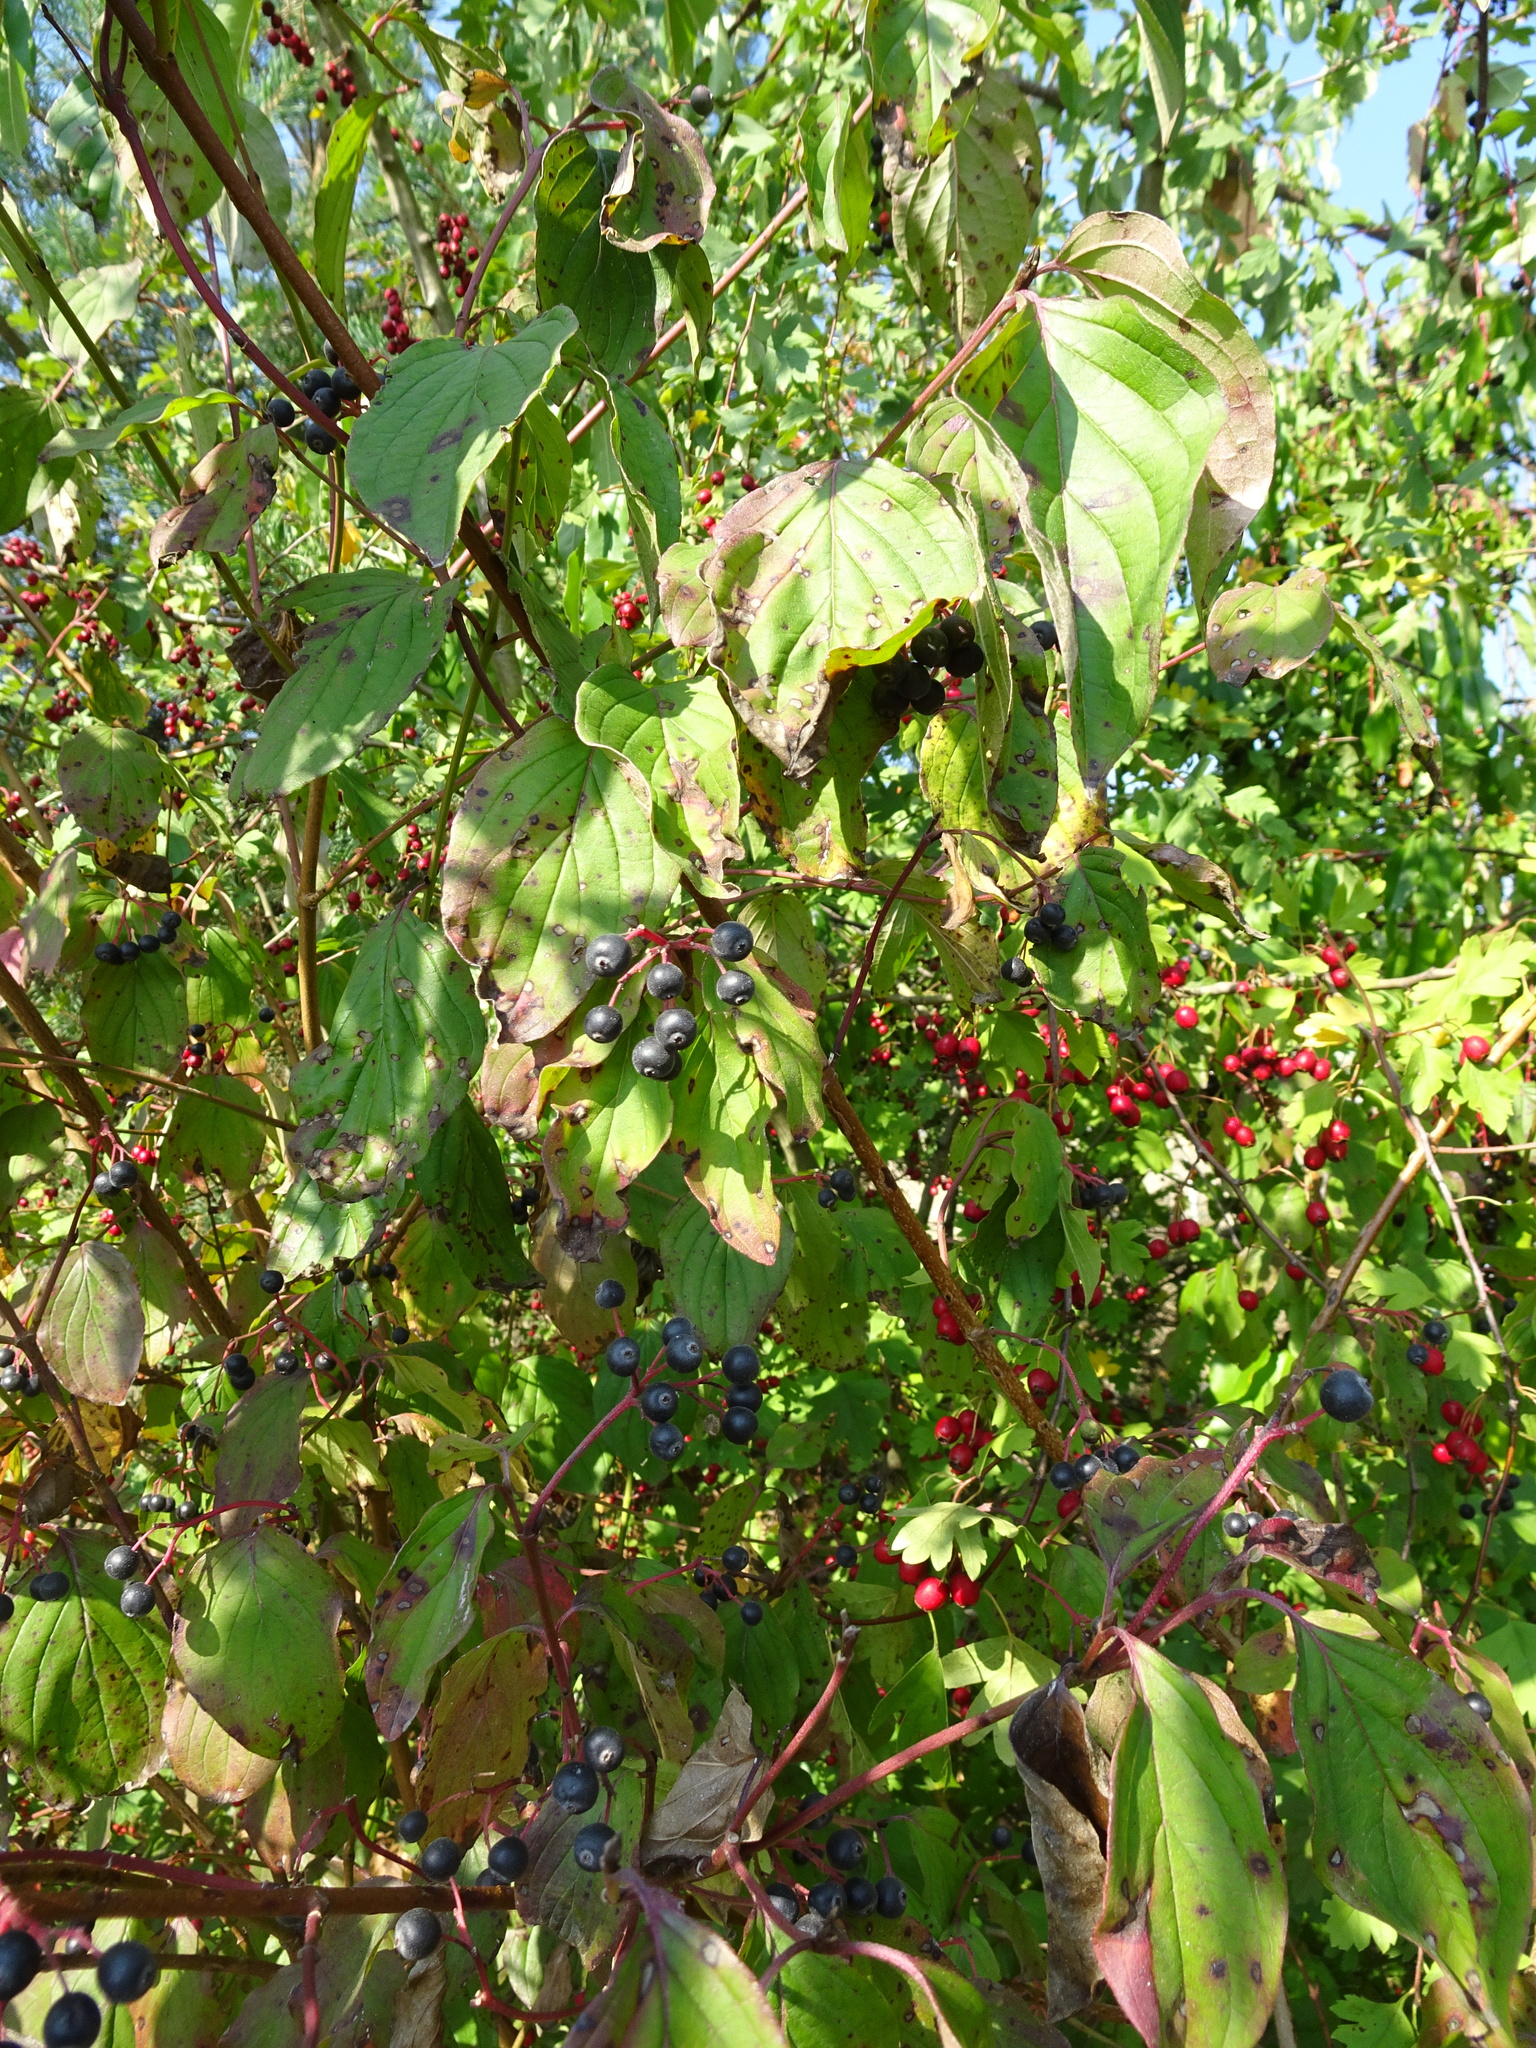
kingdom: Plantae
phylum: Tracheophyta
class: Magnoliopsida
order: Cornales
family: Cornaceae
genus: Cornus
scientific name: Cornus sanguinea
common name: Dogwood
